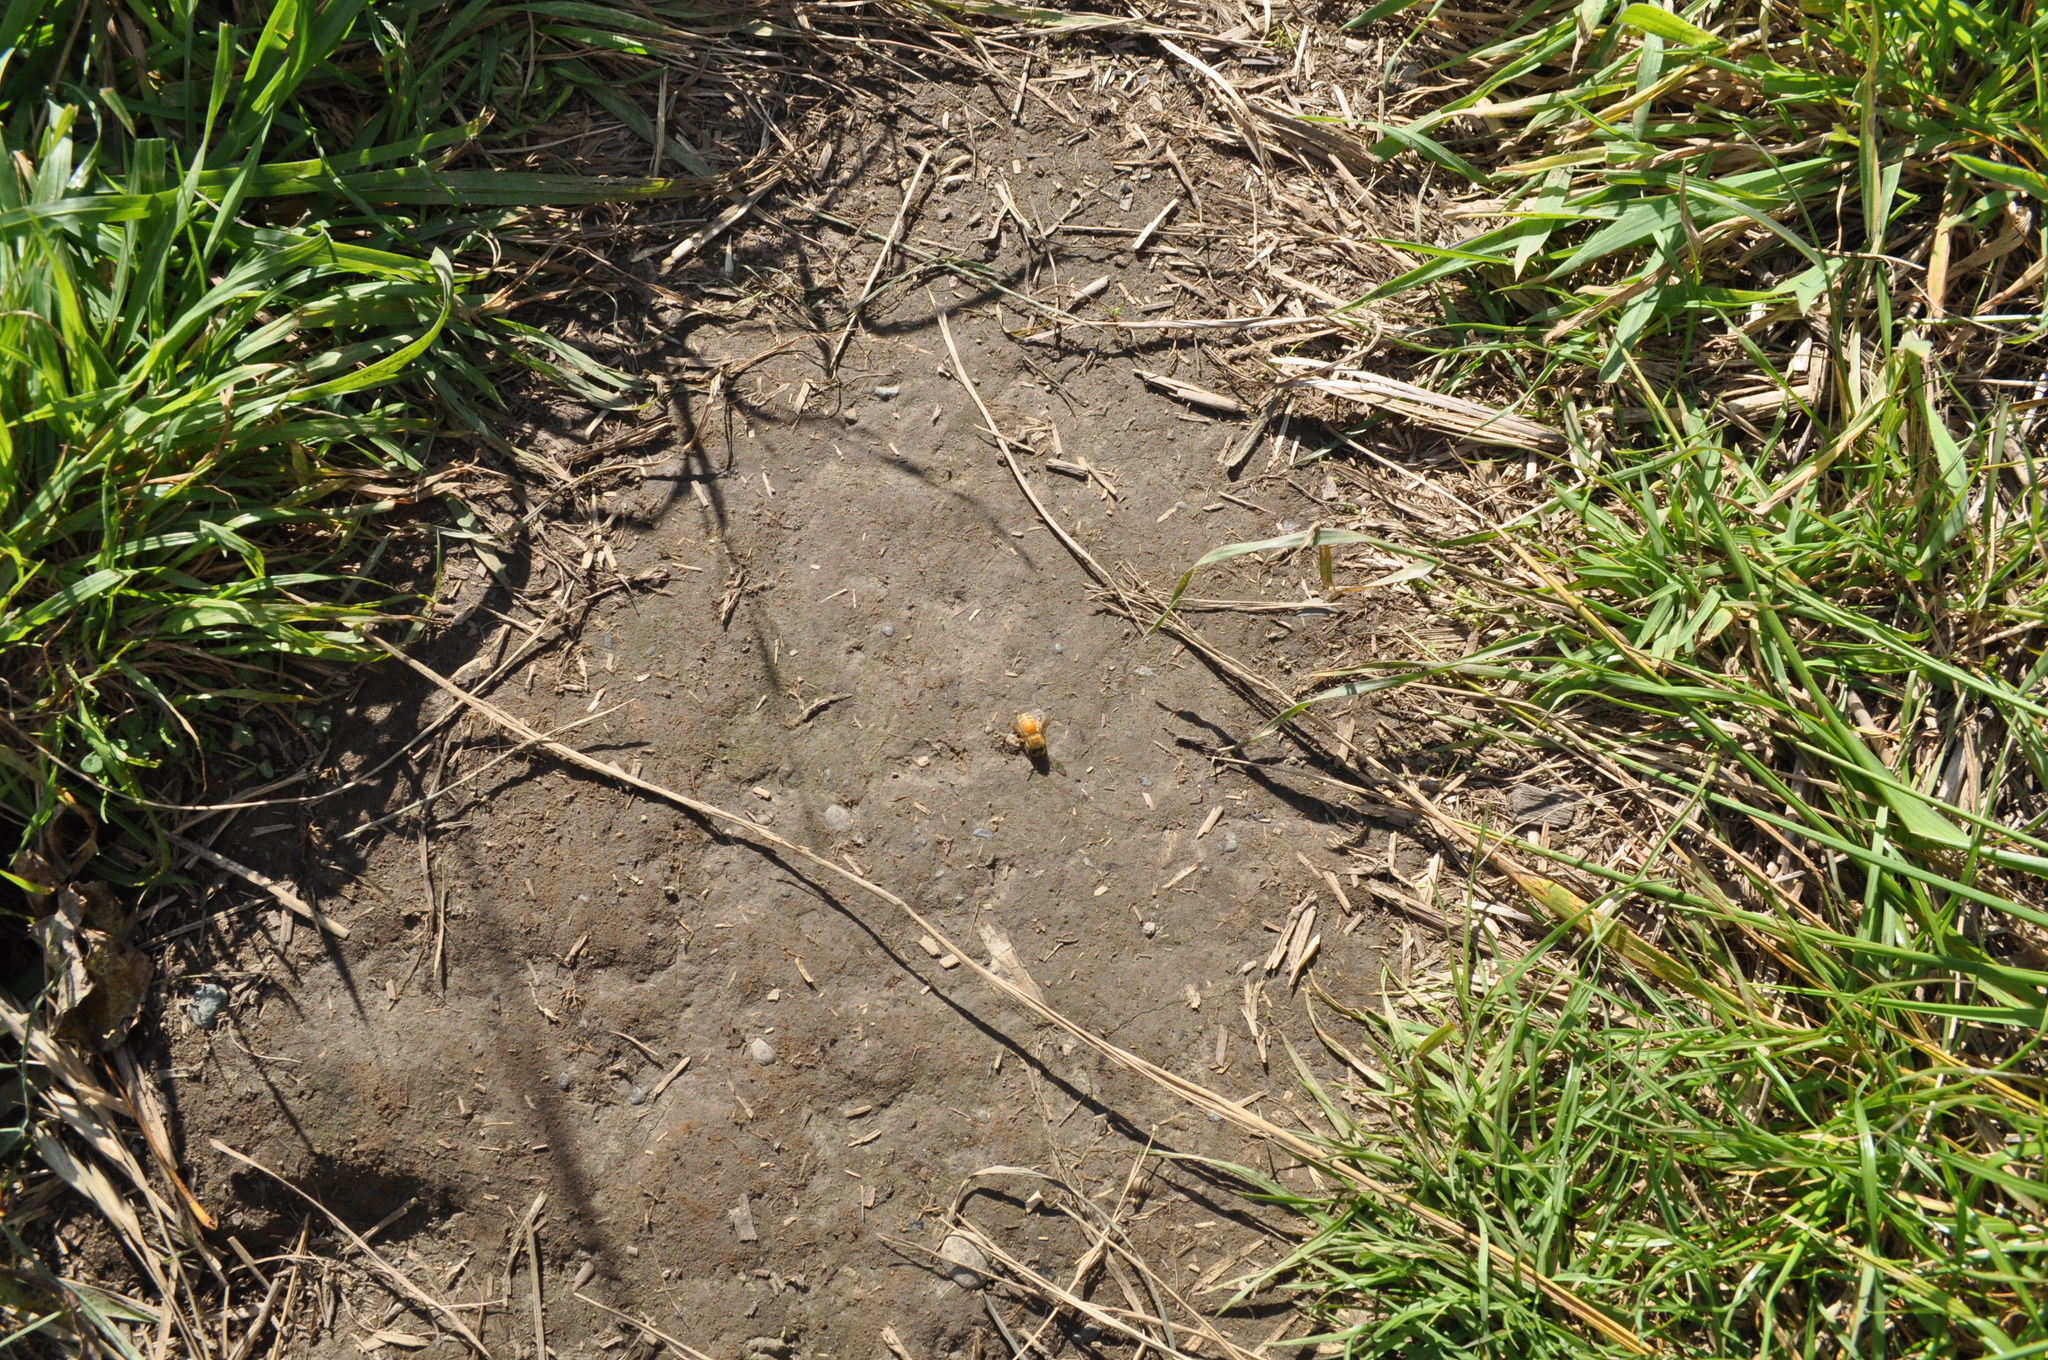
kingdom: Animalia
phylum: Arthropoda
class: Insecta
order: Hymenoptera
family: Apidae
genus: Apis
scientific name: Apis mellifera
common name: Honey bee
